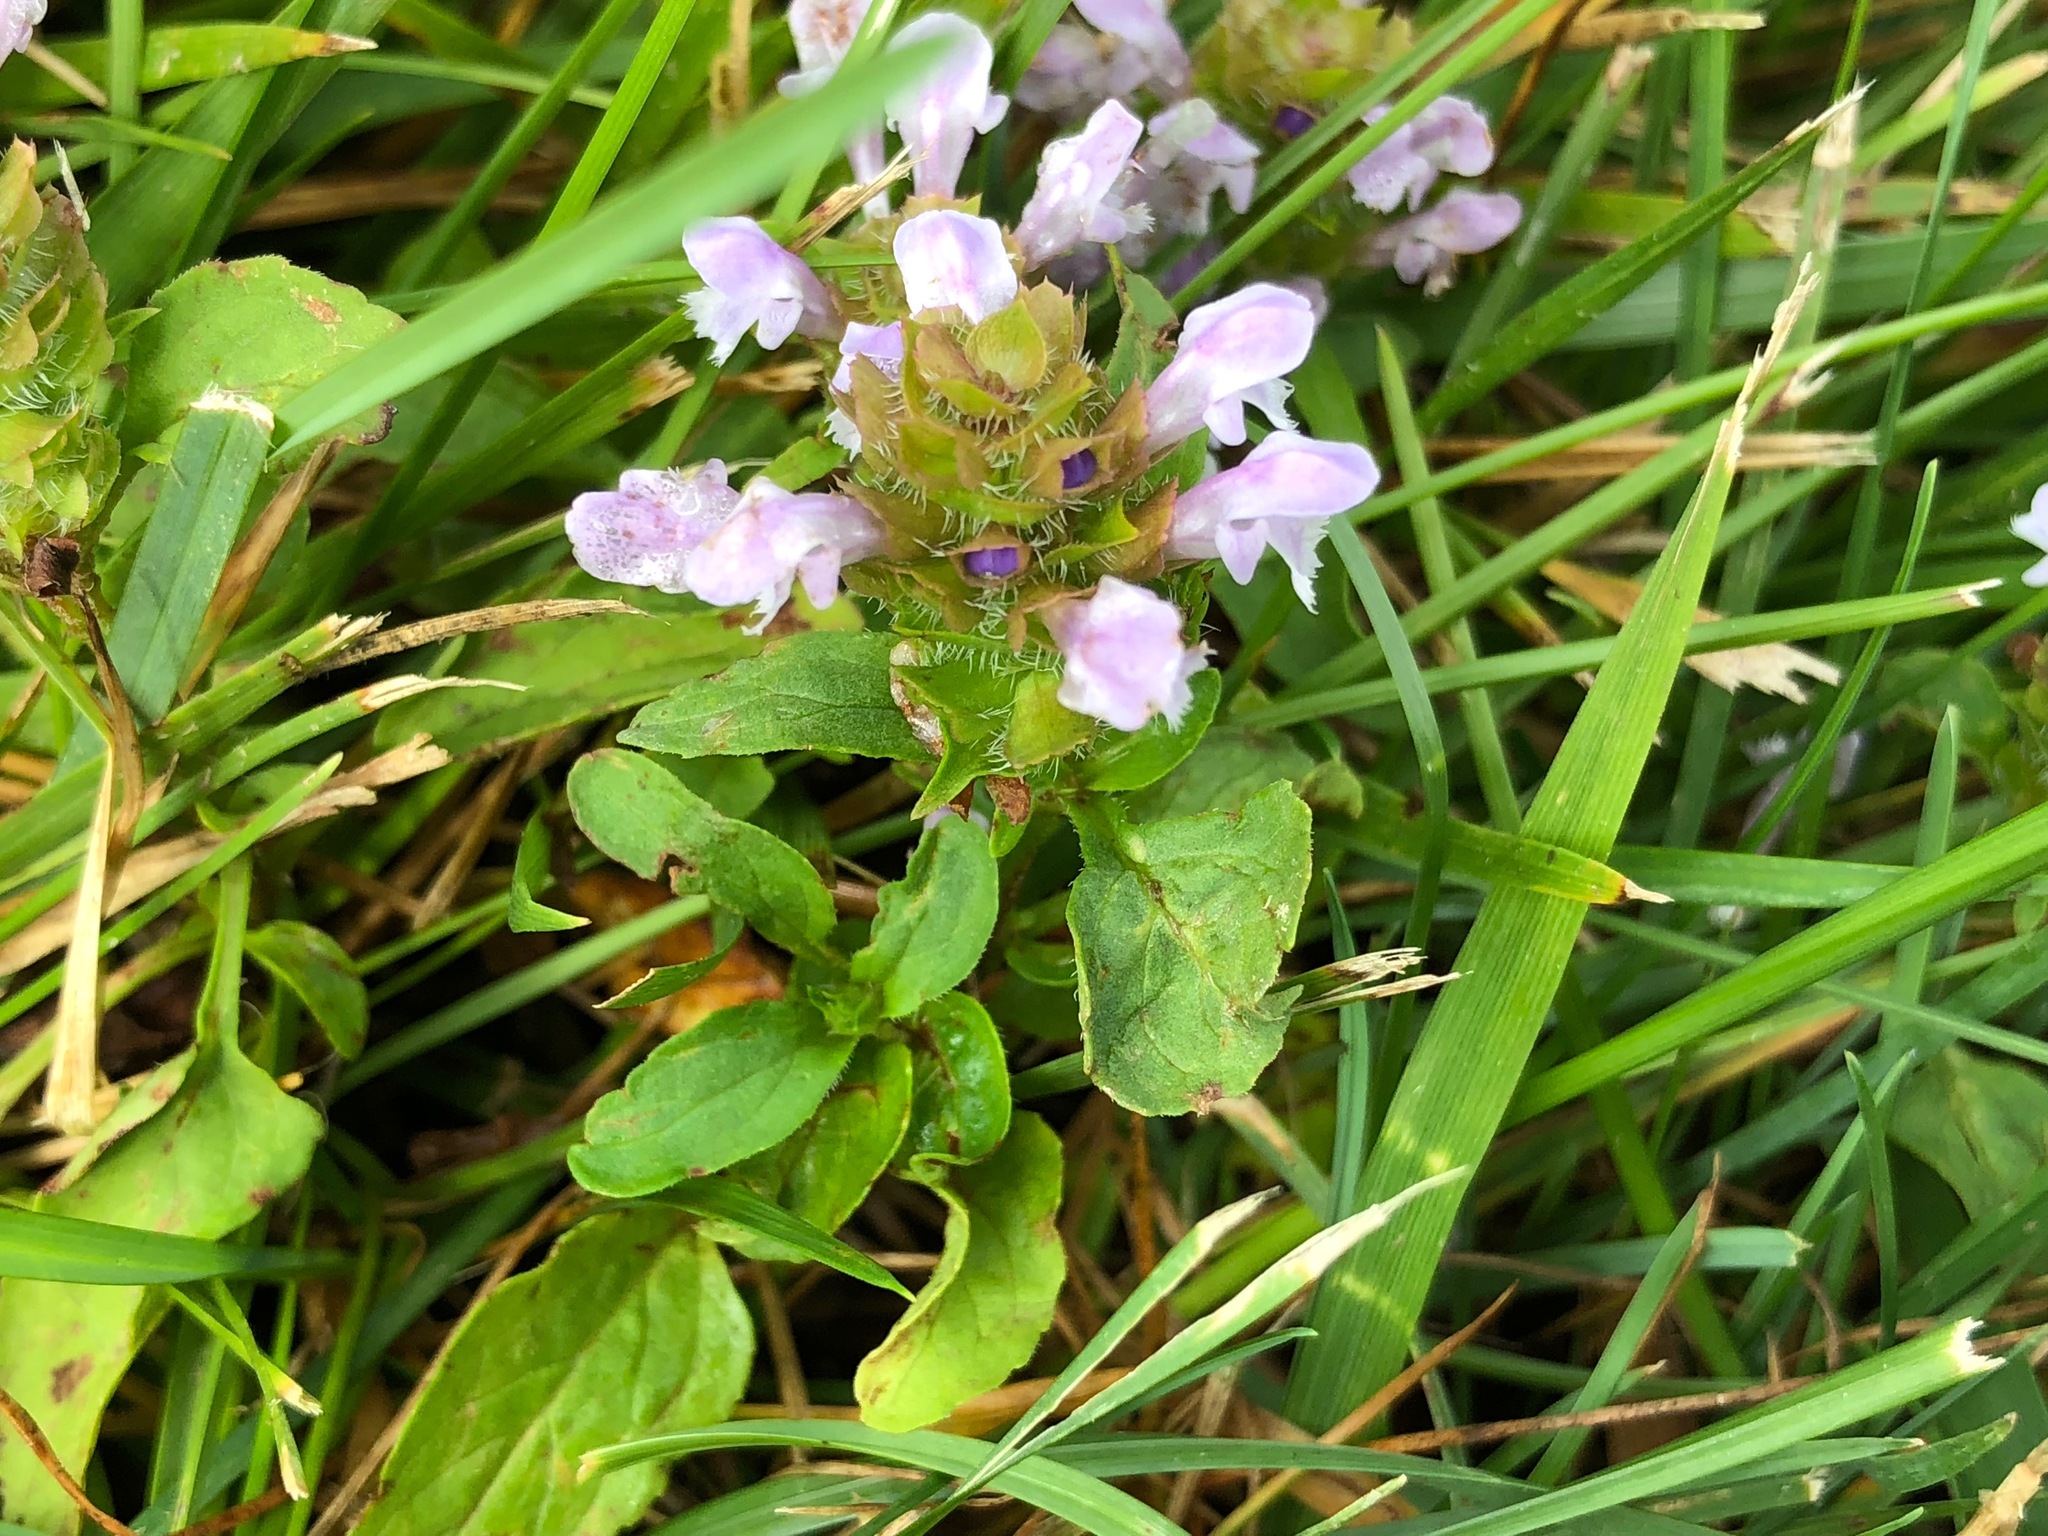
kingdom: Plantae
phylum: Tracheophyta
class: Magnoliopsida
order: Lamiales
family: Lamiaceae
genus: Prunella
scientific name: Prunella vulgaris
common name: Heal-all
